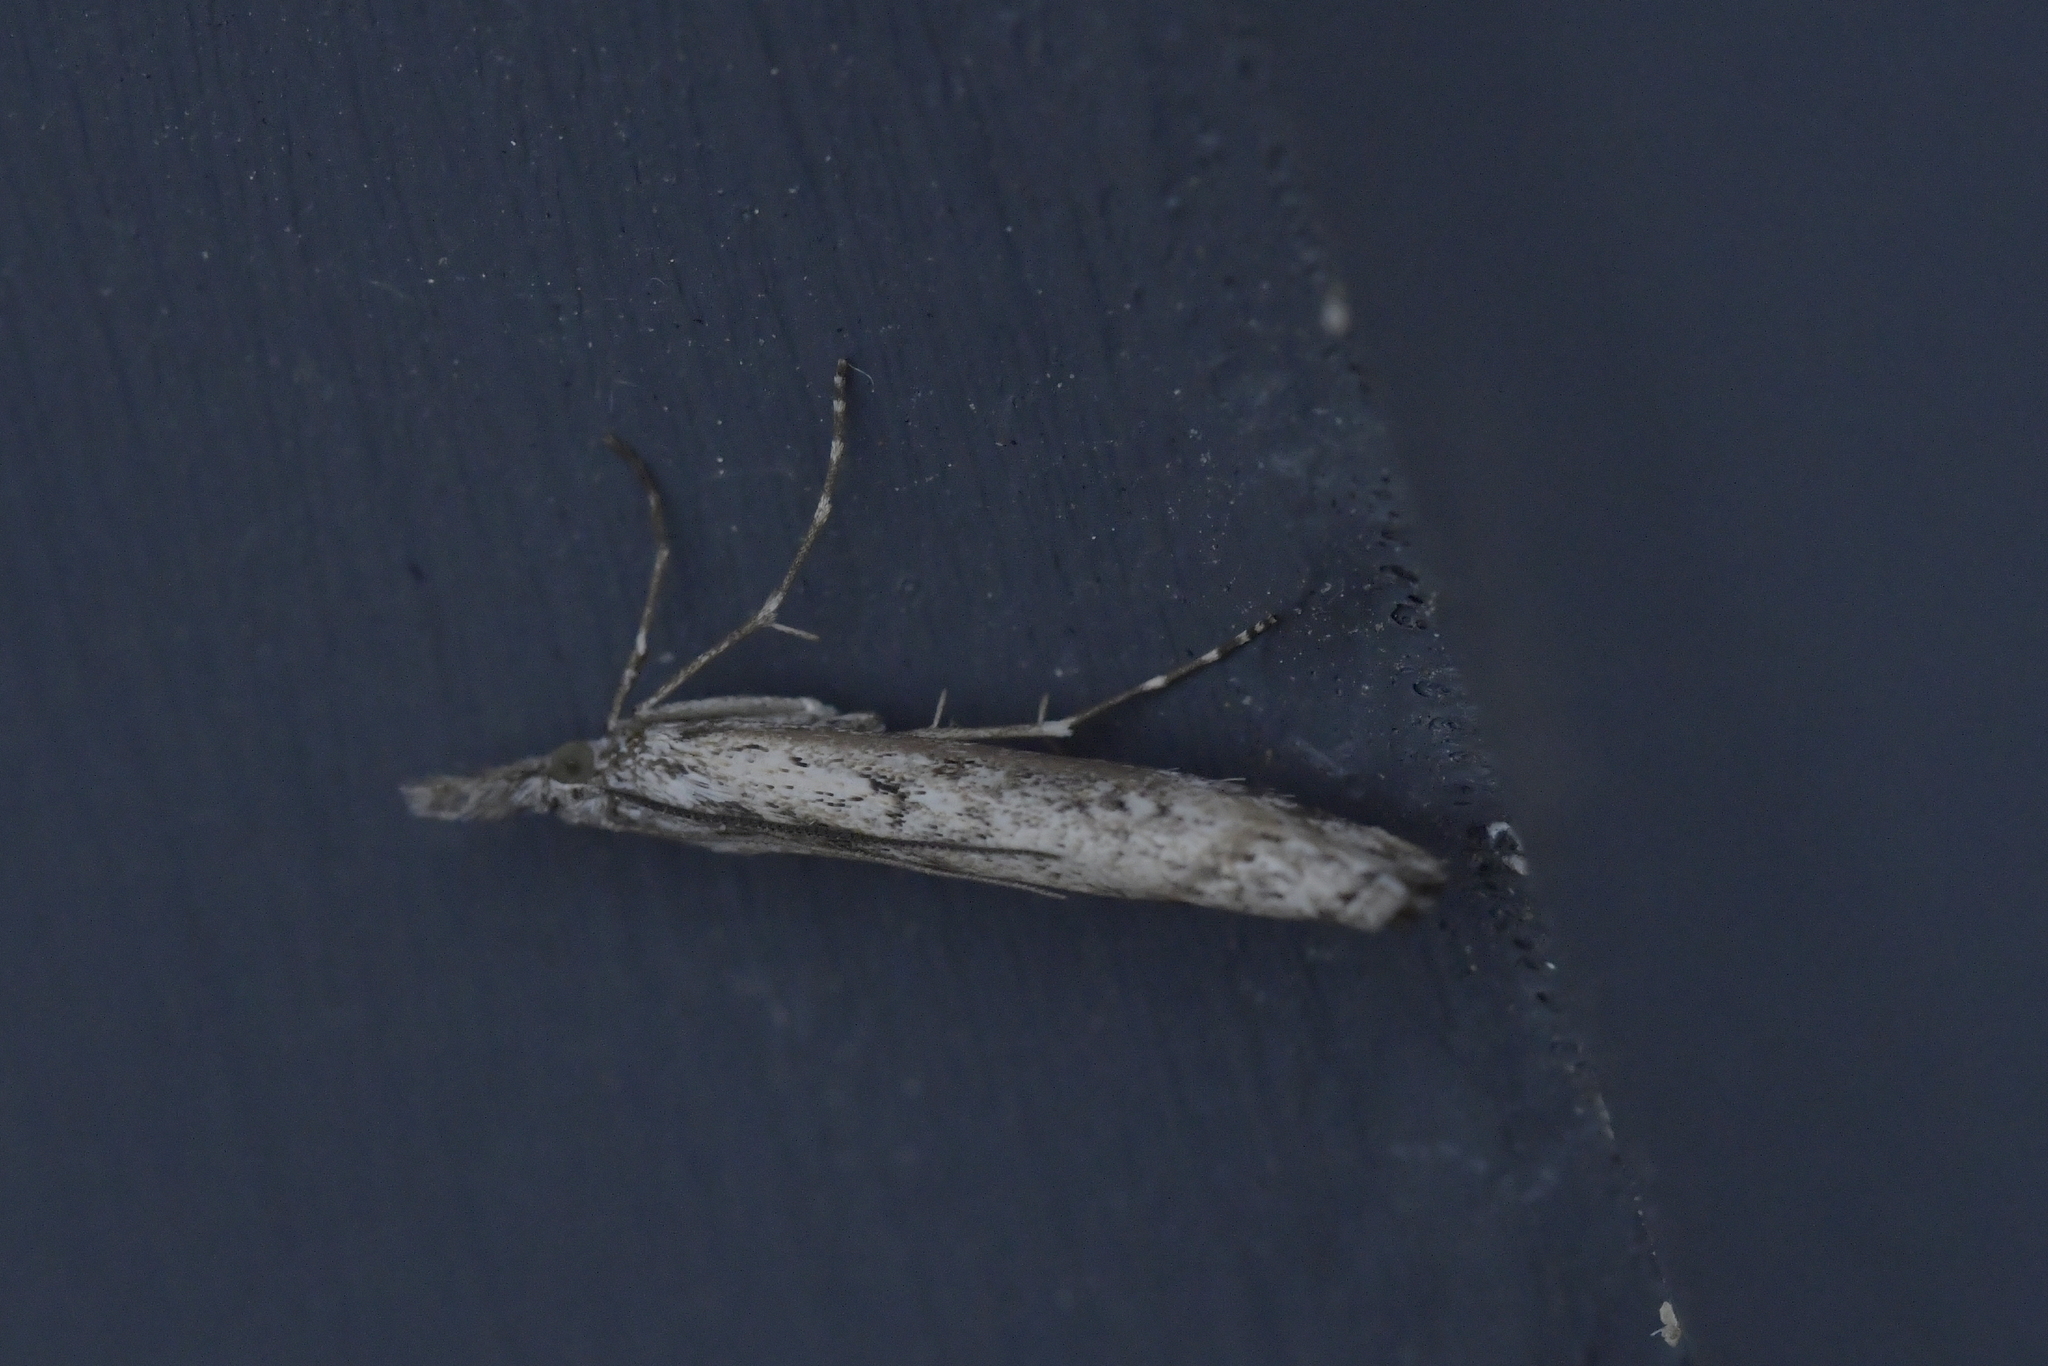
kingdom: Animalia
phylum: Arthropoda
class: Insecta
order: Lepidoptera
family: Crambidae
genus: Orocrambus
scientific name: Orocrambus cyclopicus
